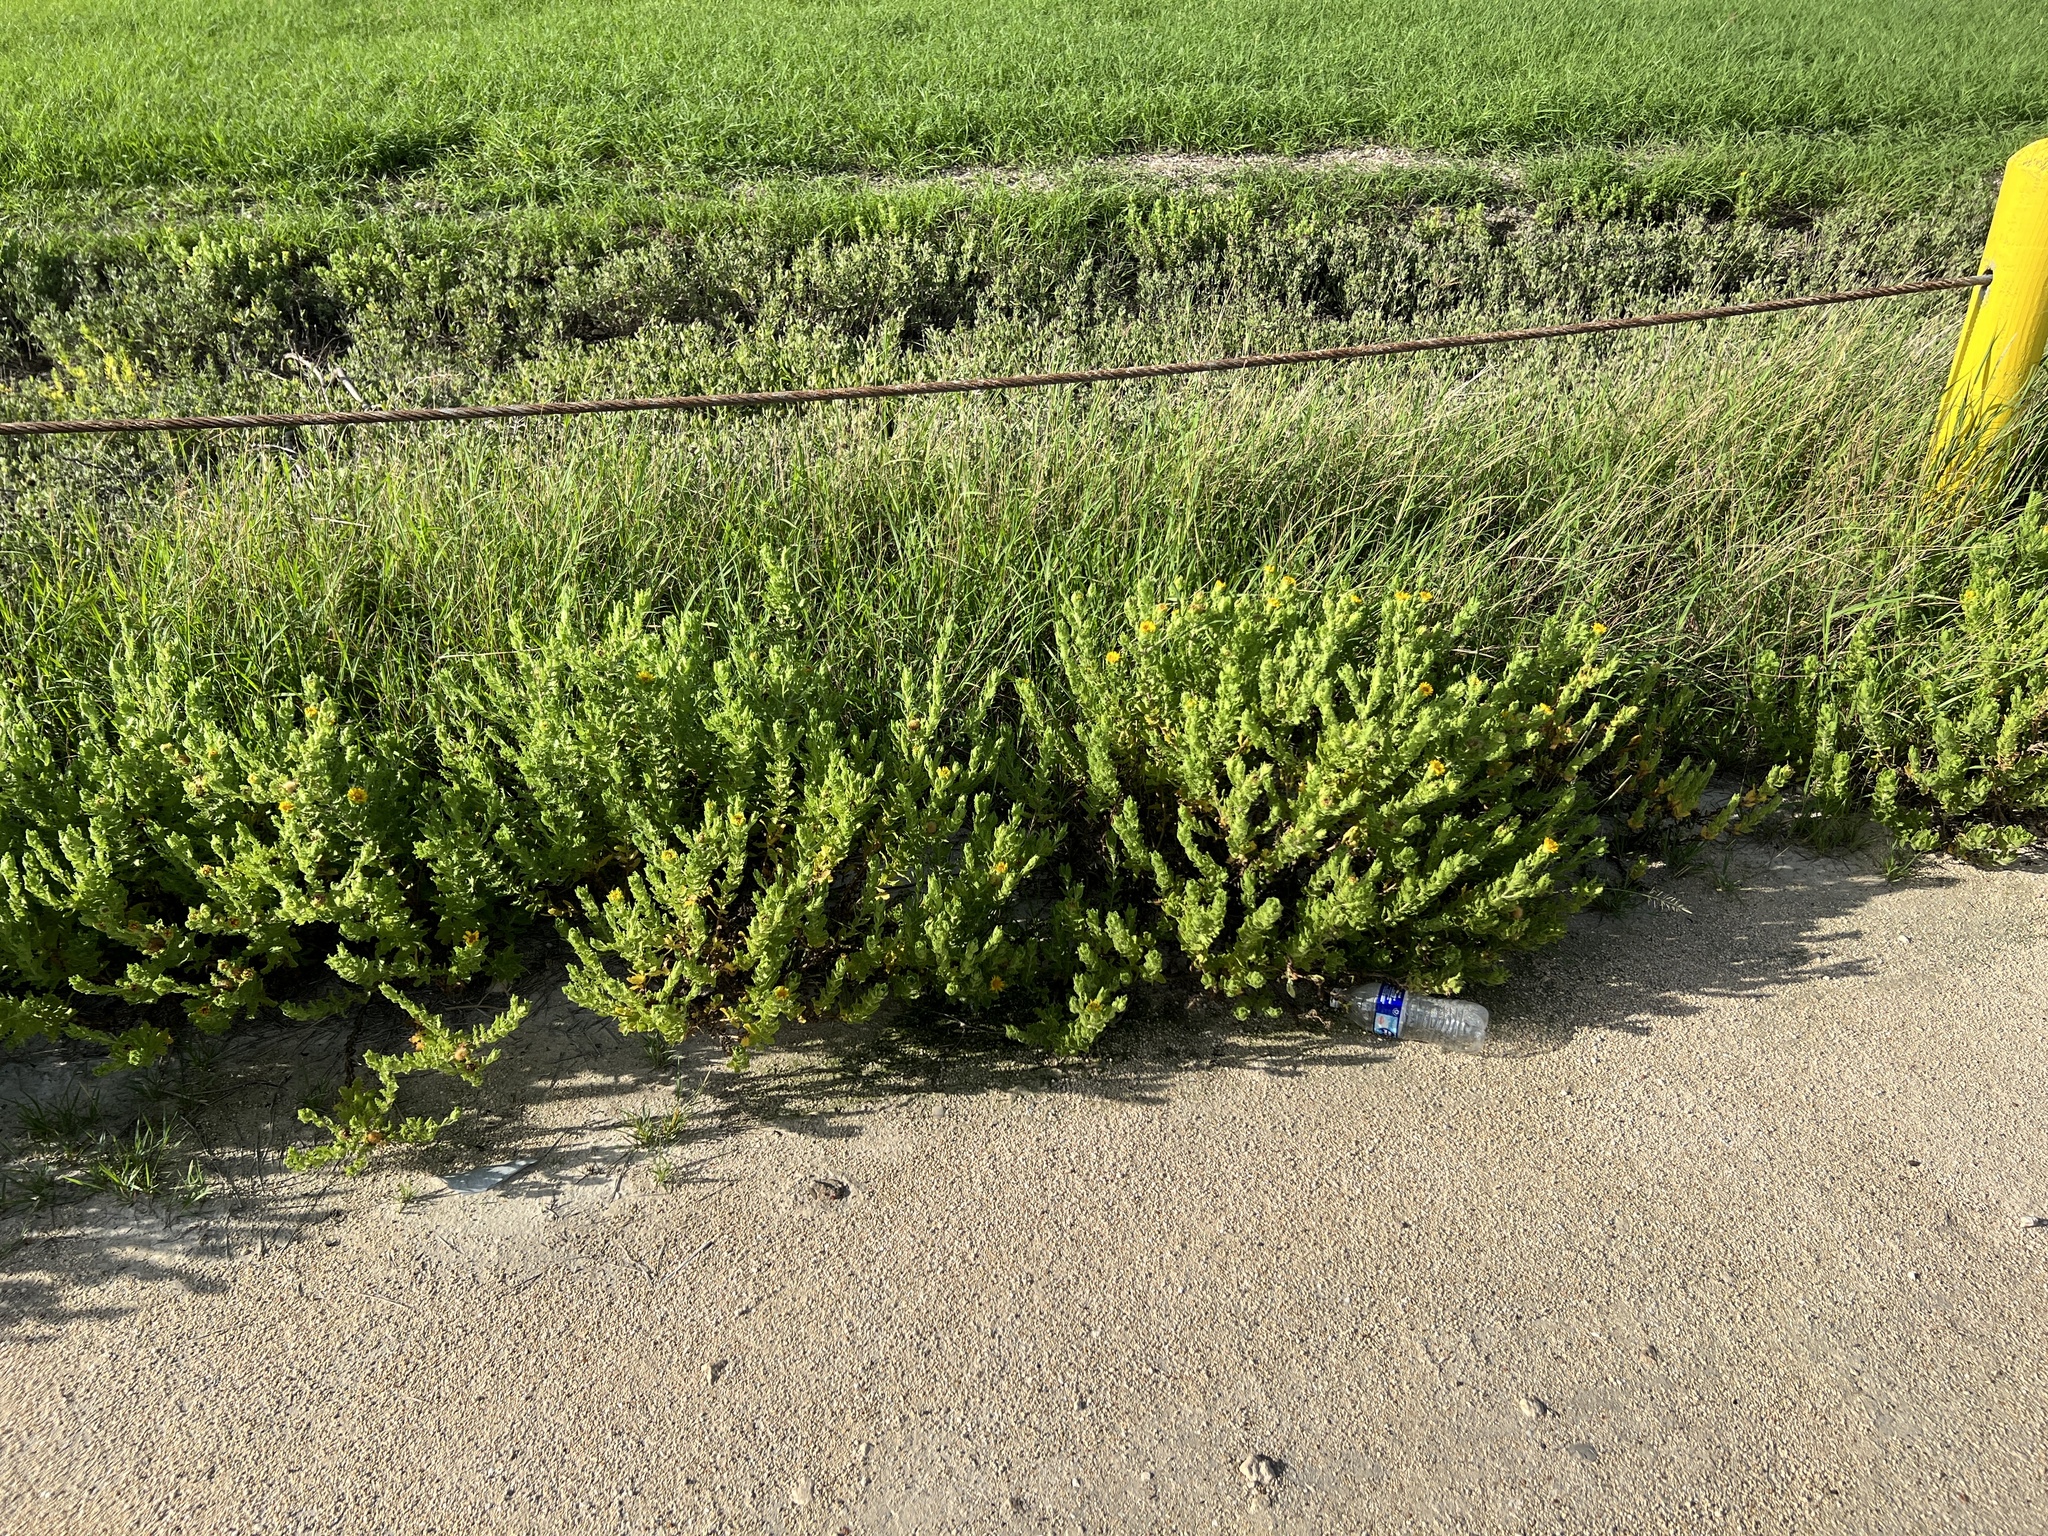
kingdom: Plantae
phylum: Tracheophyta
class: Magnoliopsida
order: Asterales
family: Asteraceae
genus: Rayjacksonia
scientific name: Rayjacksonia phyllocephala
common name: Gulf coast camphor daisy
